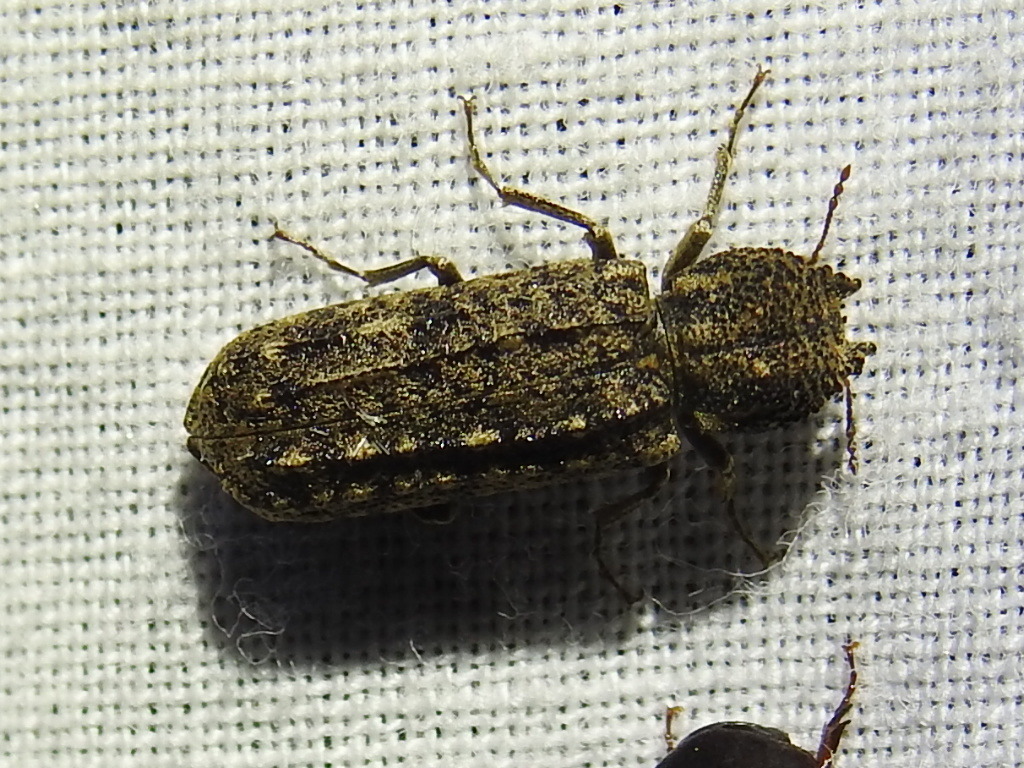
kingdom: Animalia
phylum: Arthropoda
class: Insecta
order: Coleoptera
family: Bostrichidae
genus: Lichenophanes
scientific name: Lichenophanes bicornis
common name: Two-horned powder-post beetle
